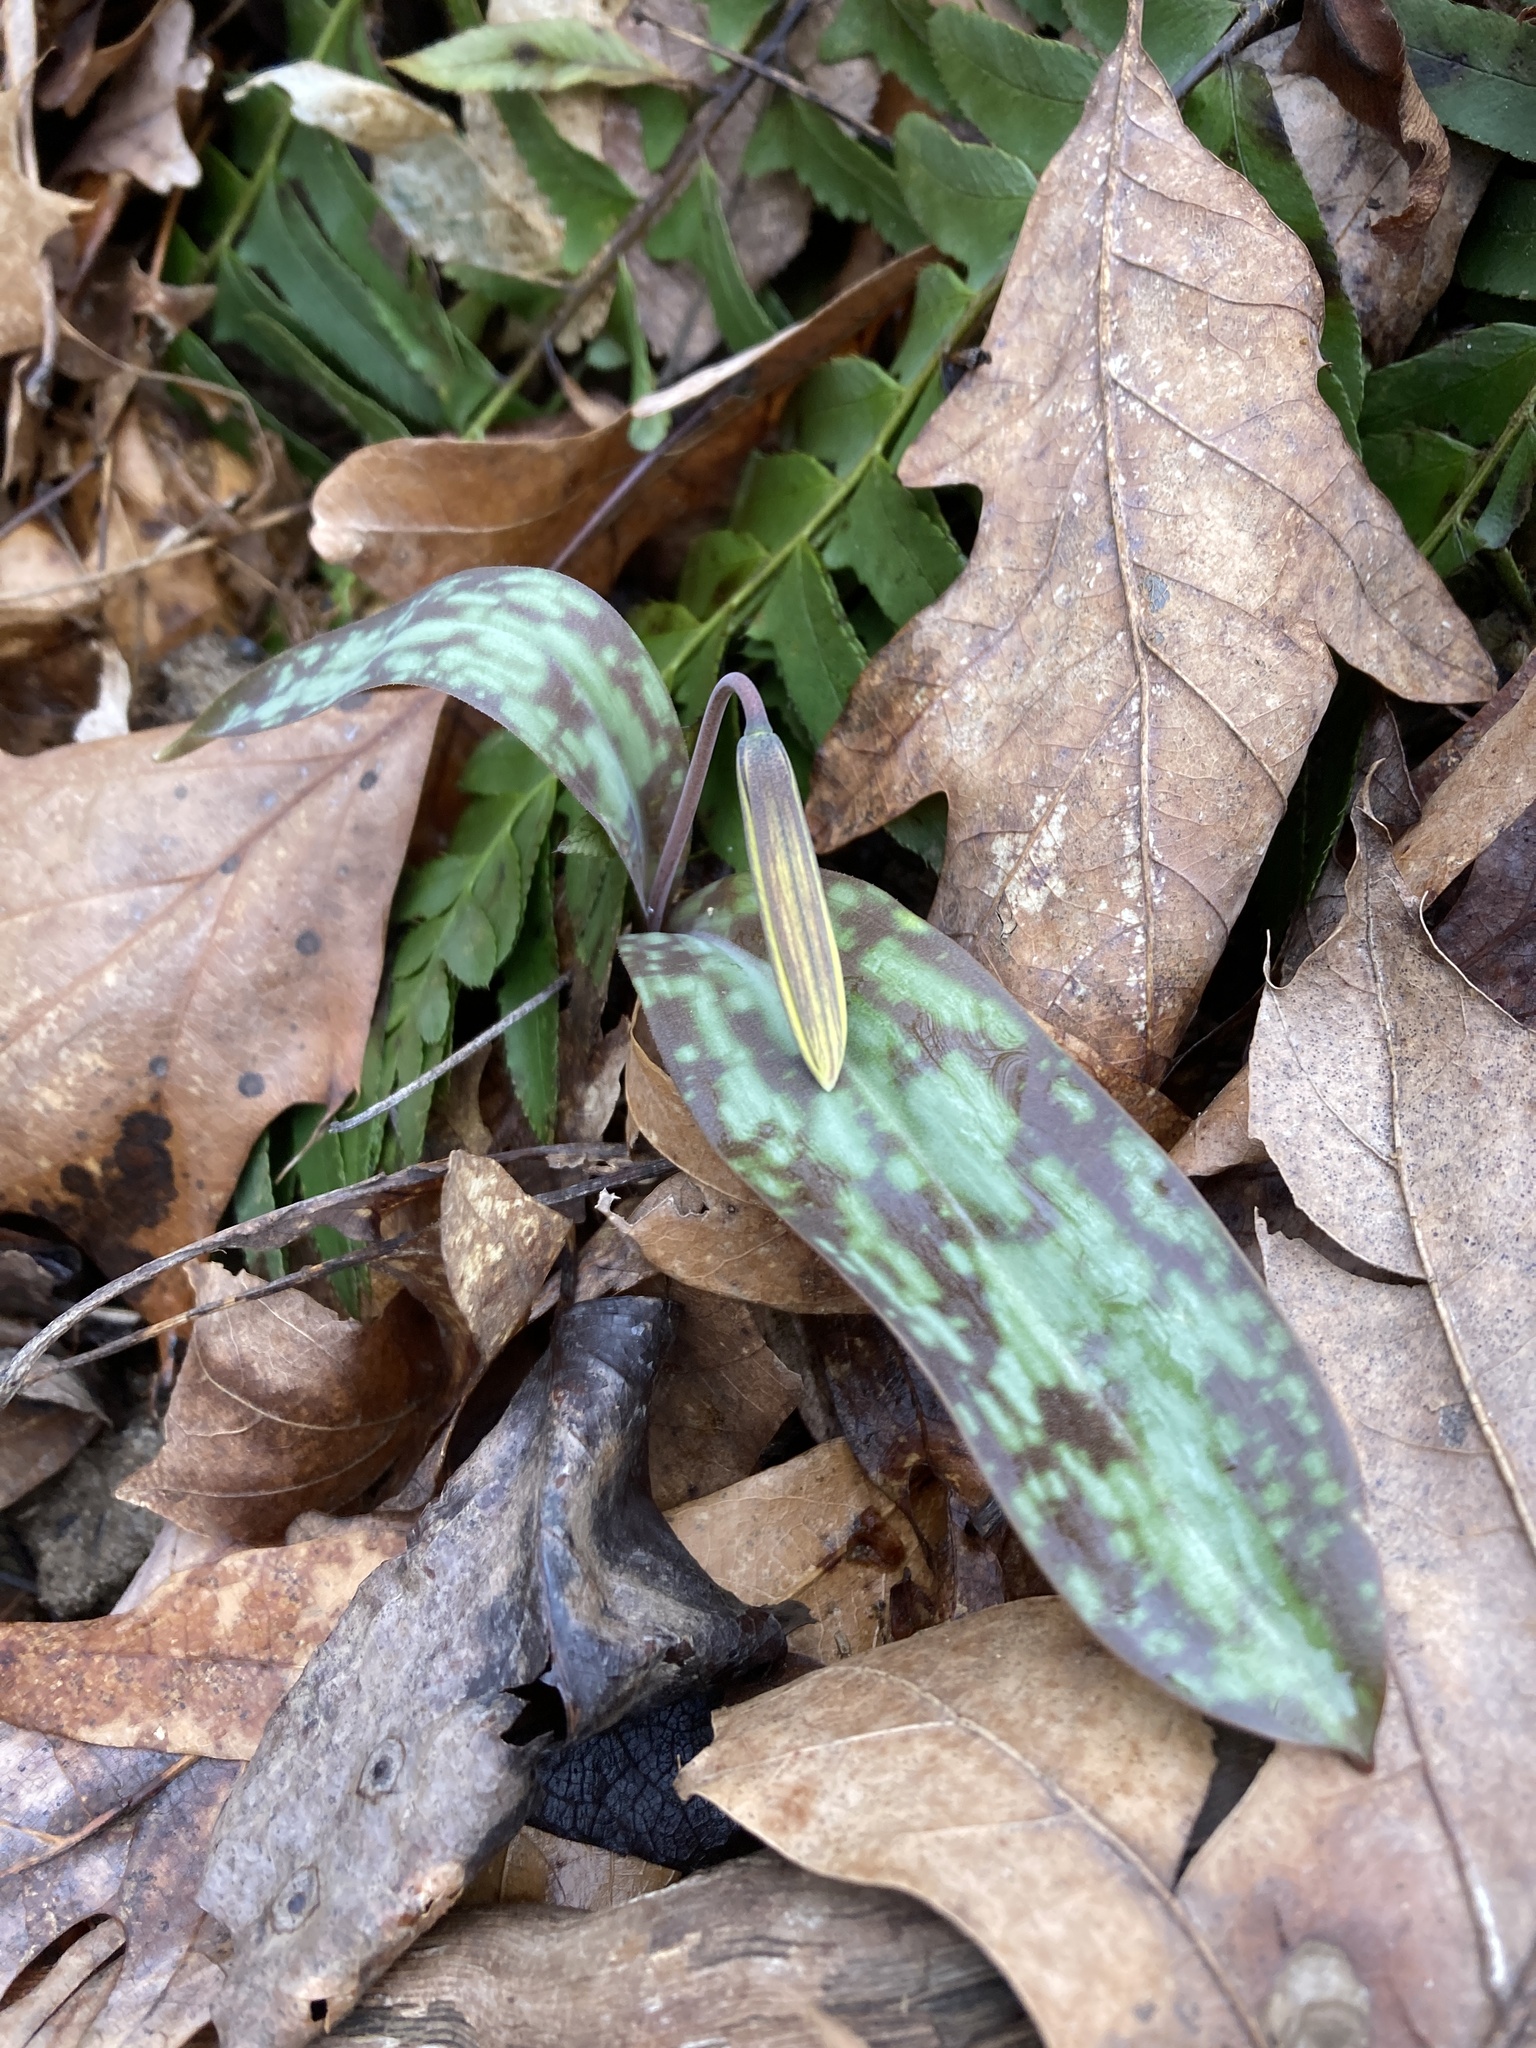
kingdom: Plantae
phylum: Tracheophyta
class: Liliopsida
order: Liliales
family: Liliaceae
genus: Erythronium
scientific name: Erythronium americanum
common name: Yellow adder's-tongue
